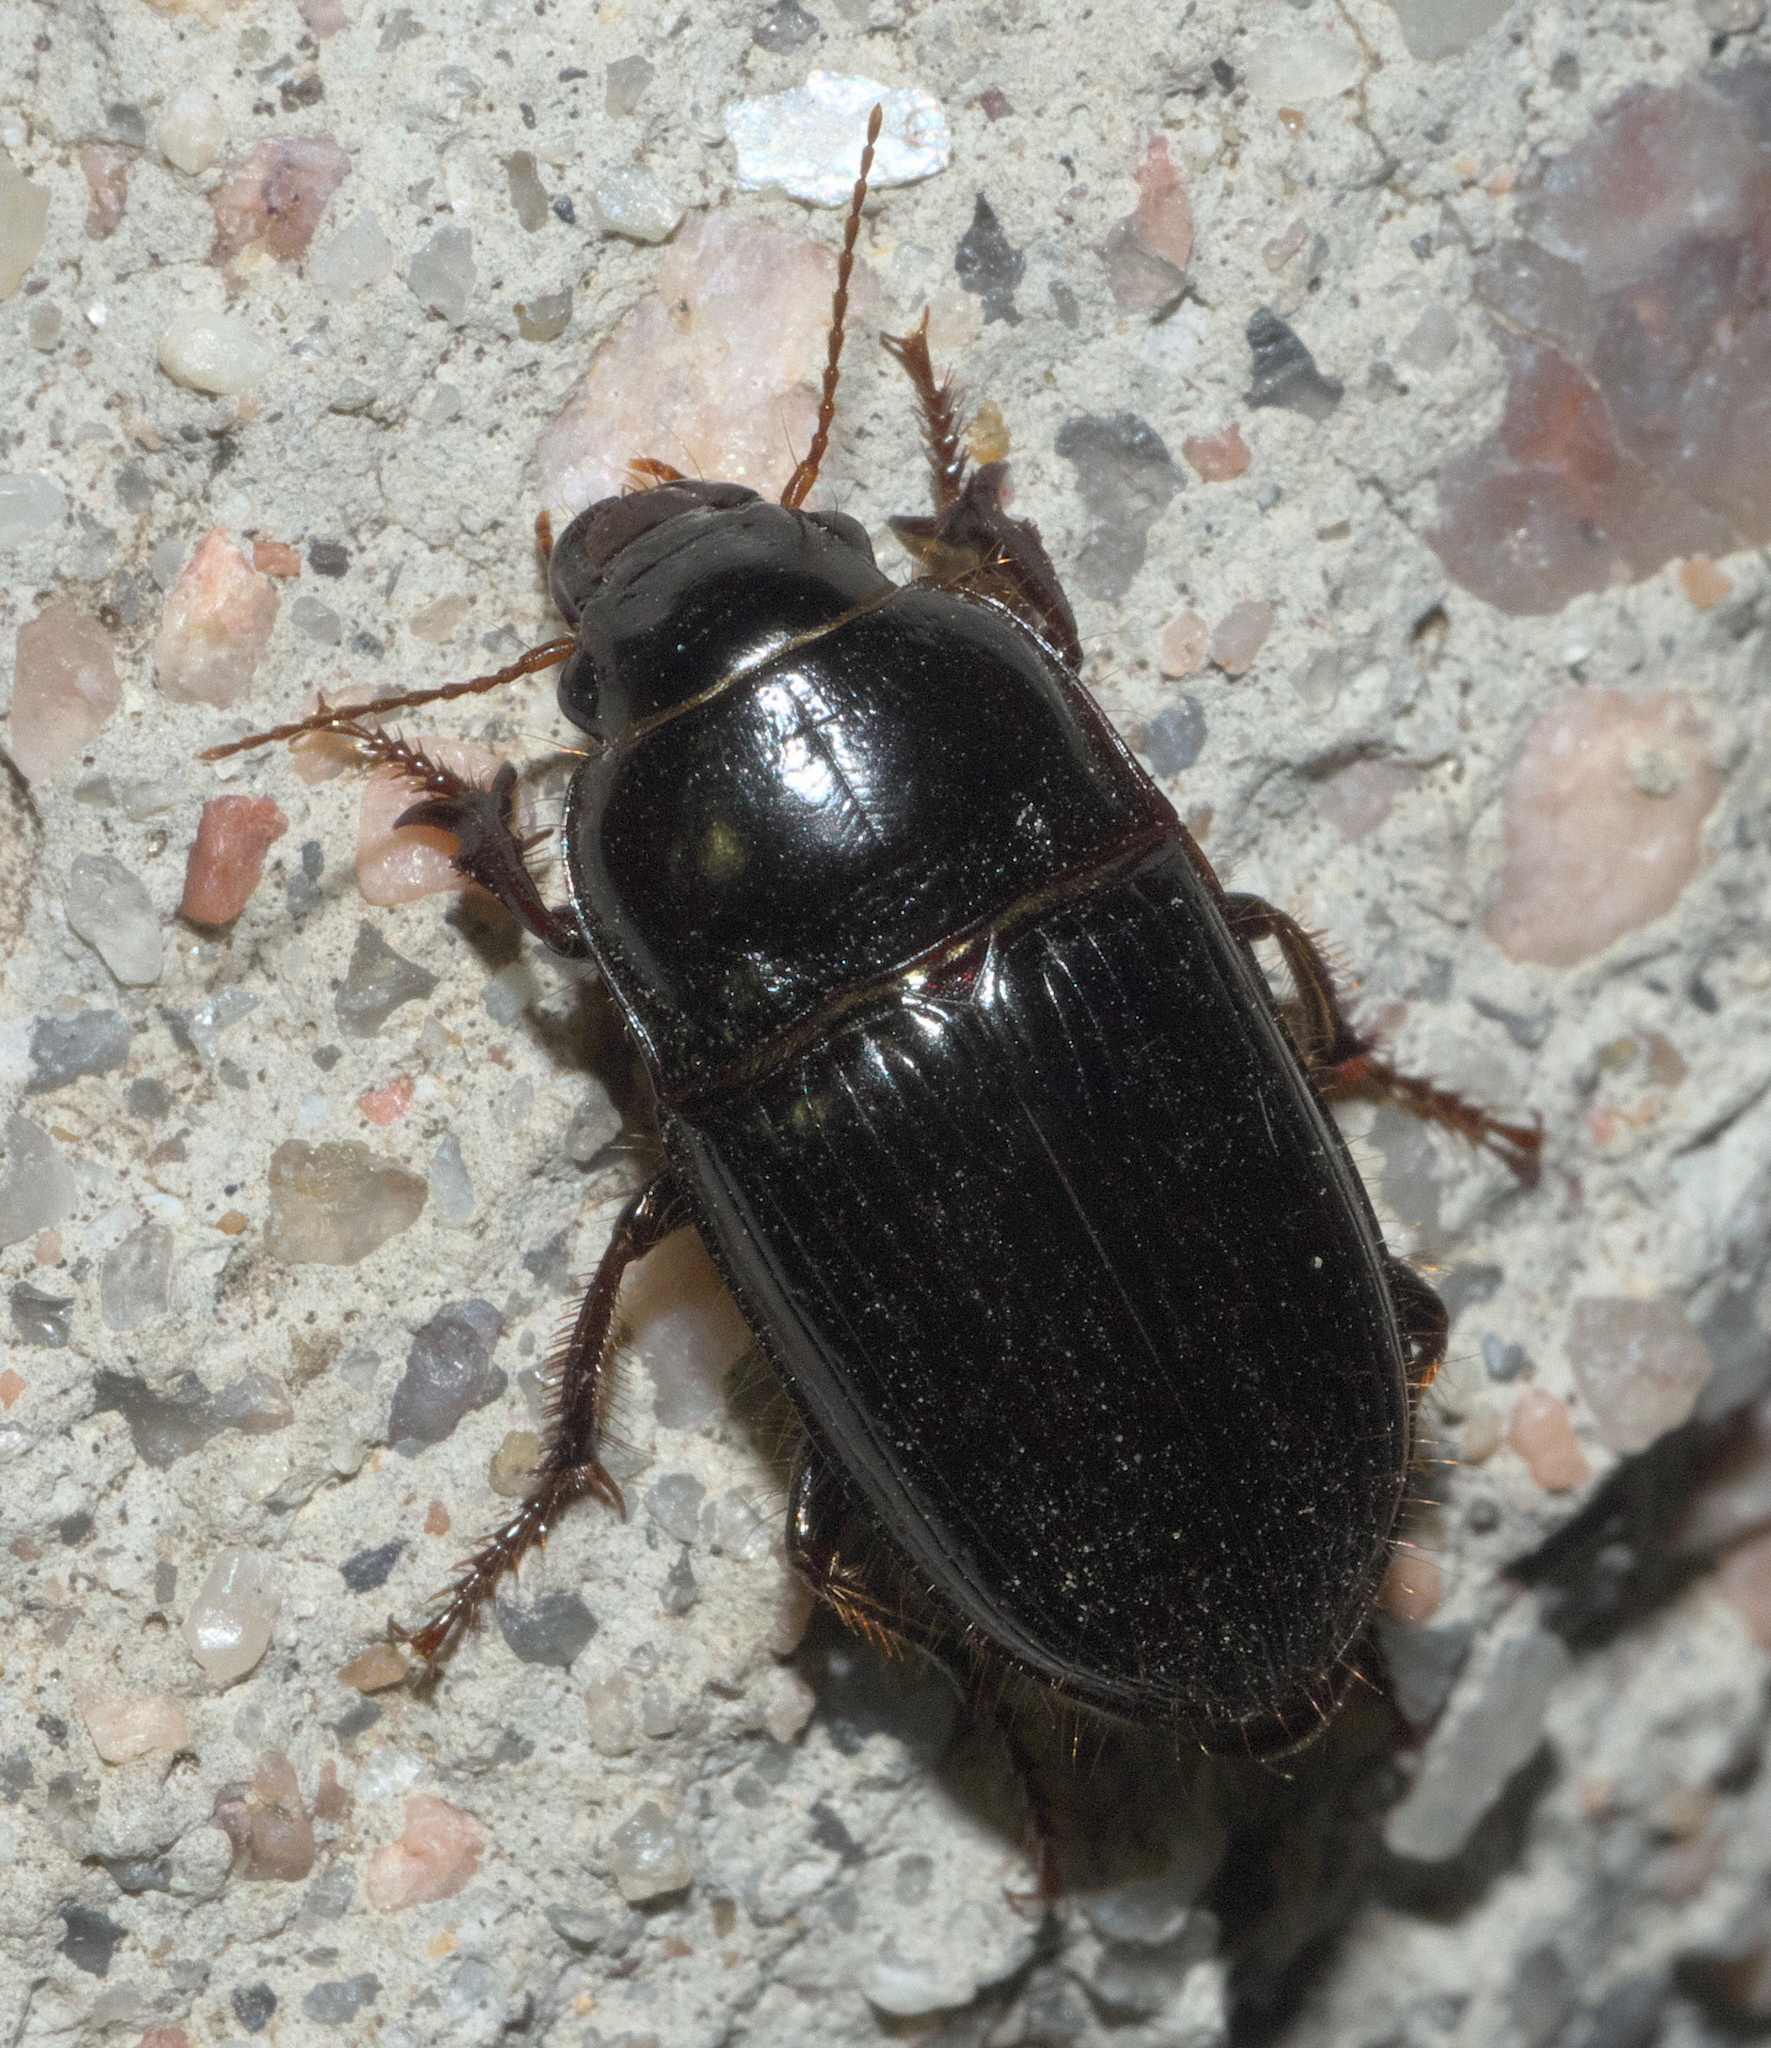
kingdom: Animalia
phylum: Arthropoda
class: Insecta
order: Coleoptera
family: Carabidae
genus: Euryderus
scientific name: Euryderus grossus
